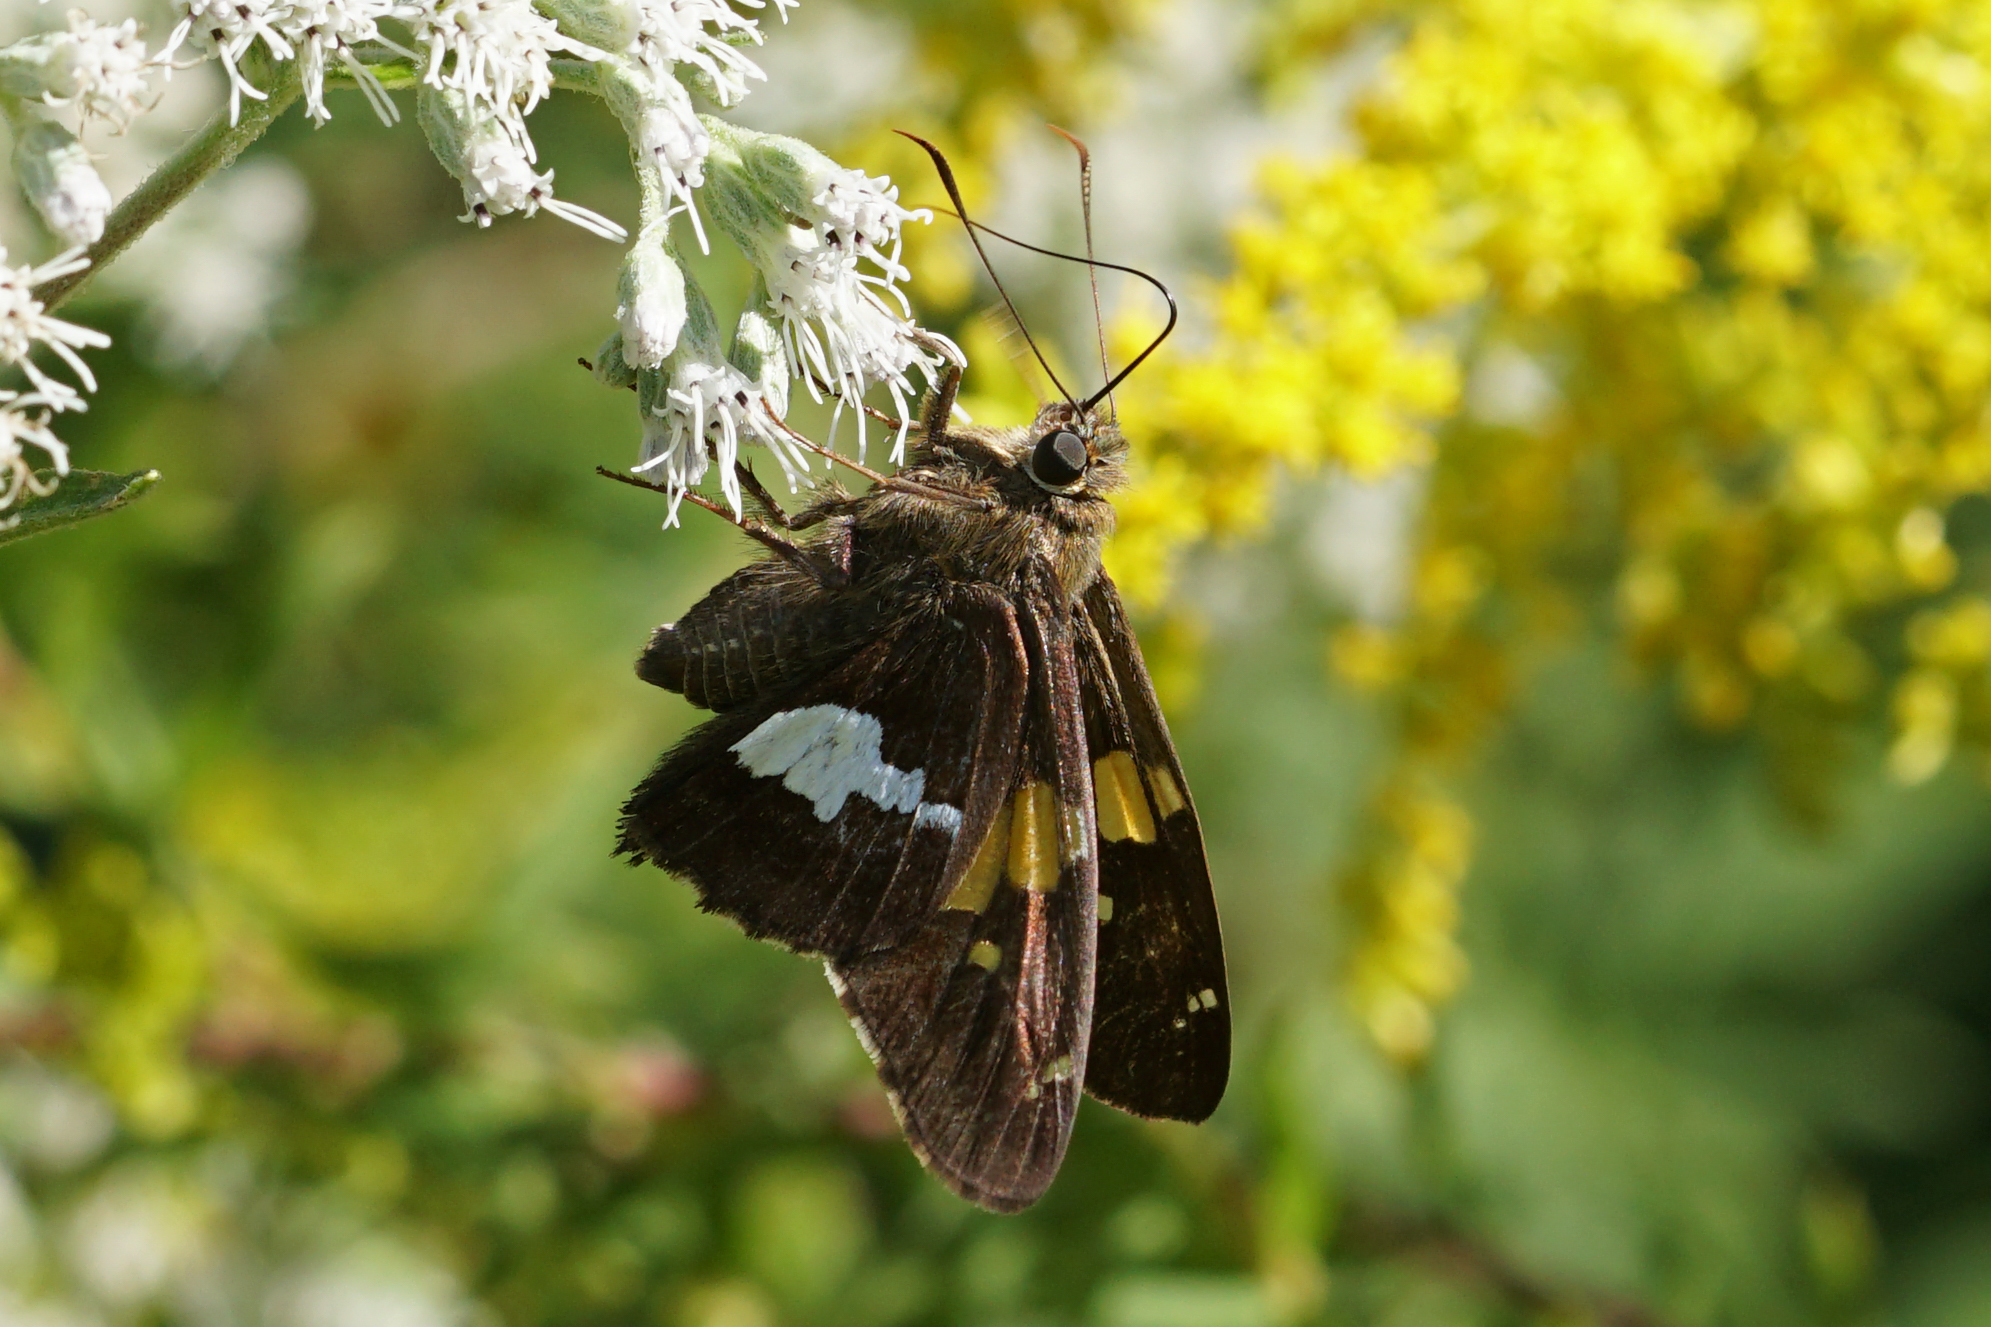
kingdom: Animalia
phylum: Arthropoda
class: Insecta
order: Lepidoptera
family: Hesperiidae
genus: Epargyreus
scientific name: Epargyreus clarus
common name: Silver-spotted skipper
